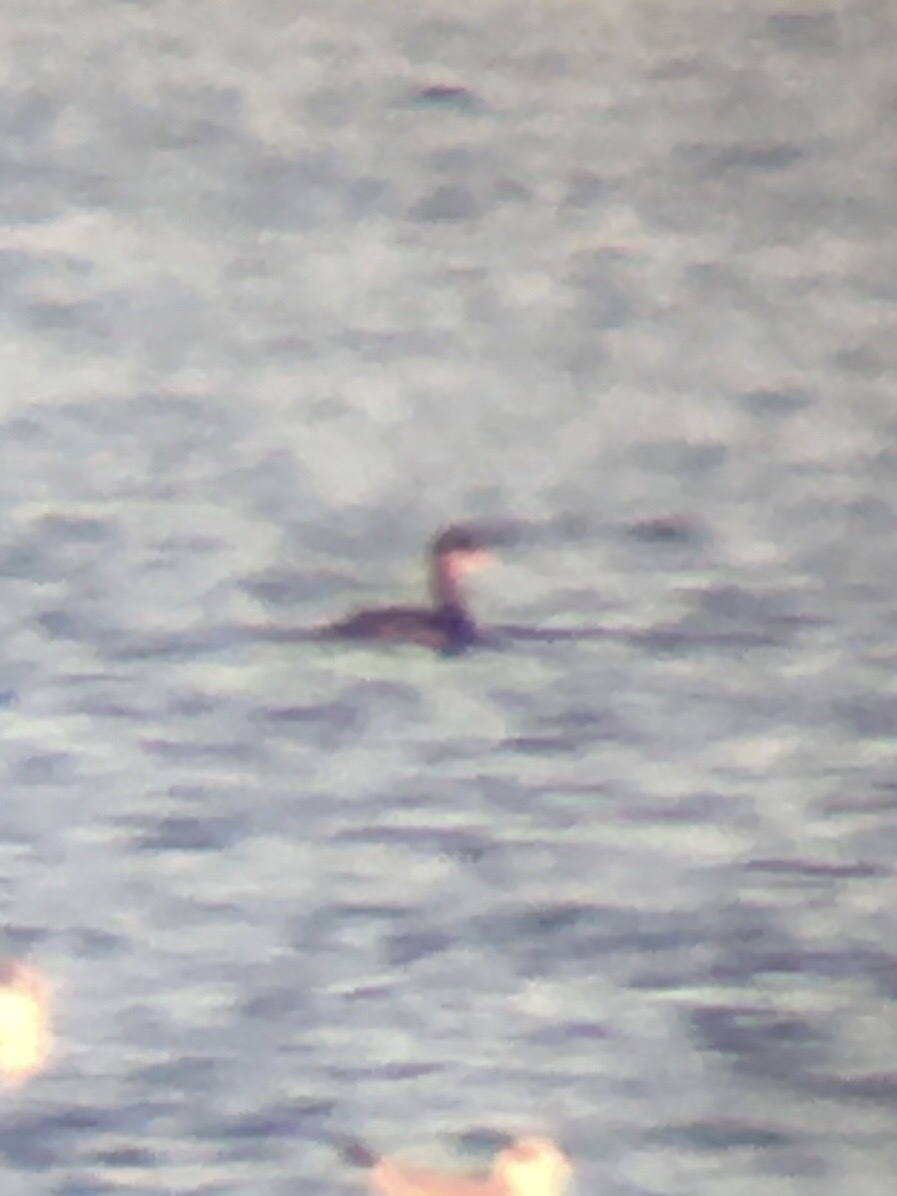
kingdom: Animalia
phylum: Chordata
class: Aves
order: Podicipediformes
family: Podicipedidae
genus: Podiceps
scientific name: Podiceps grisegena
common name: Red-necked grebe
